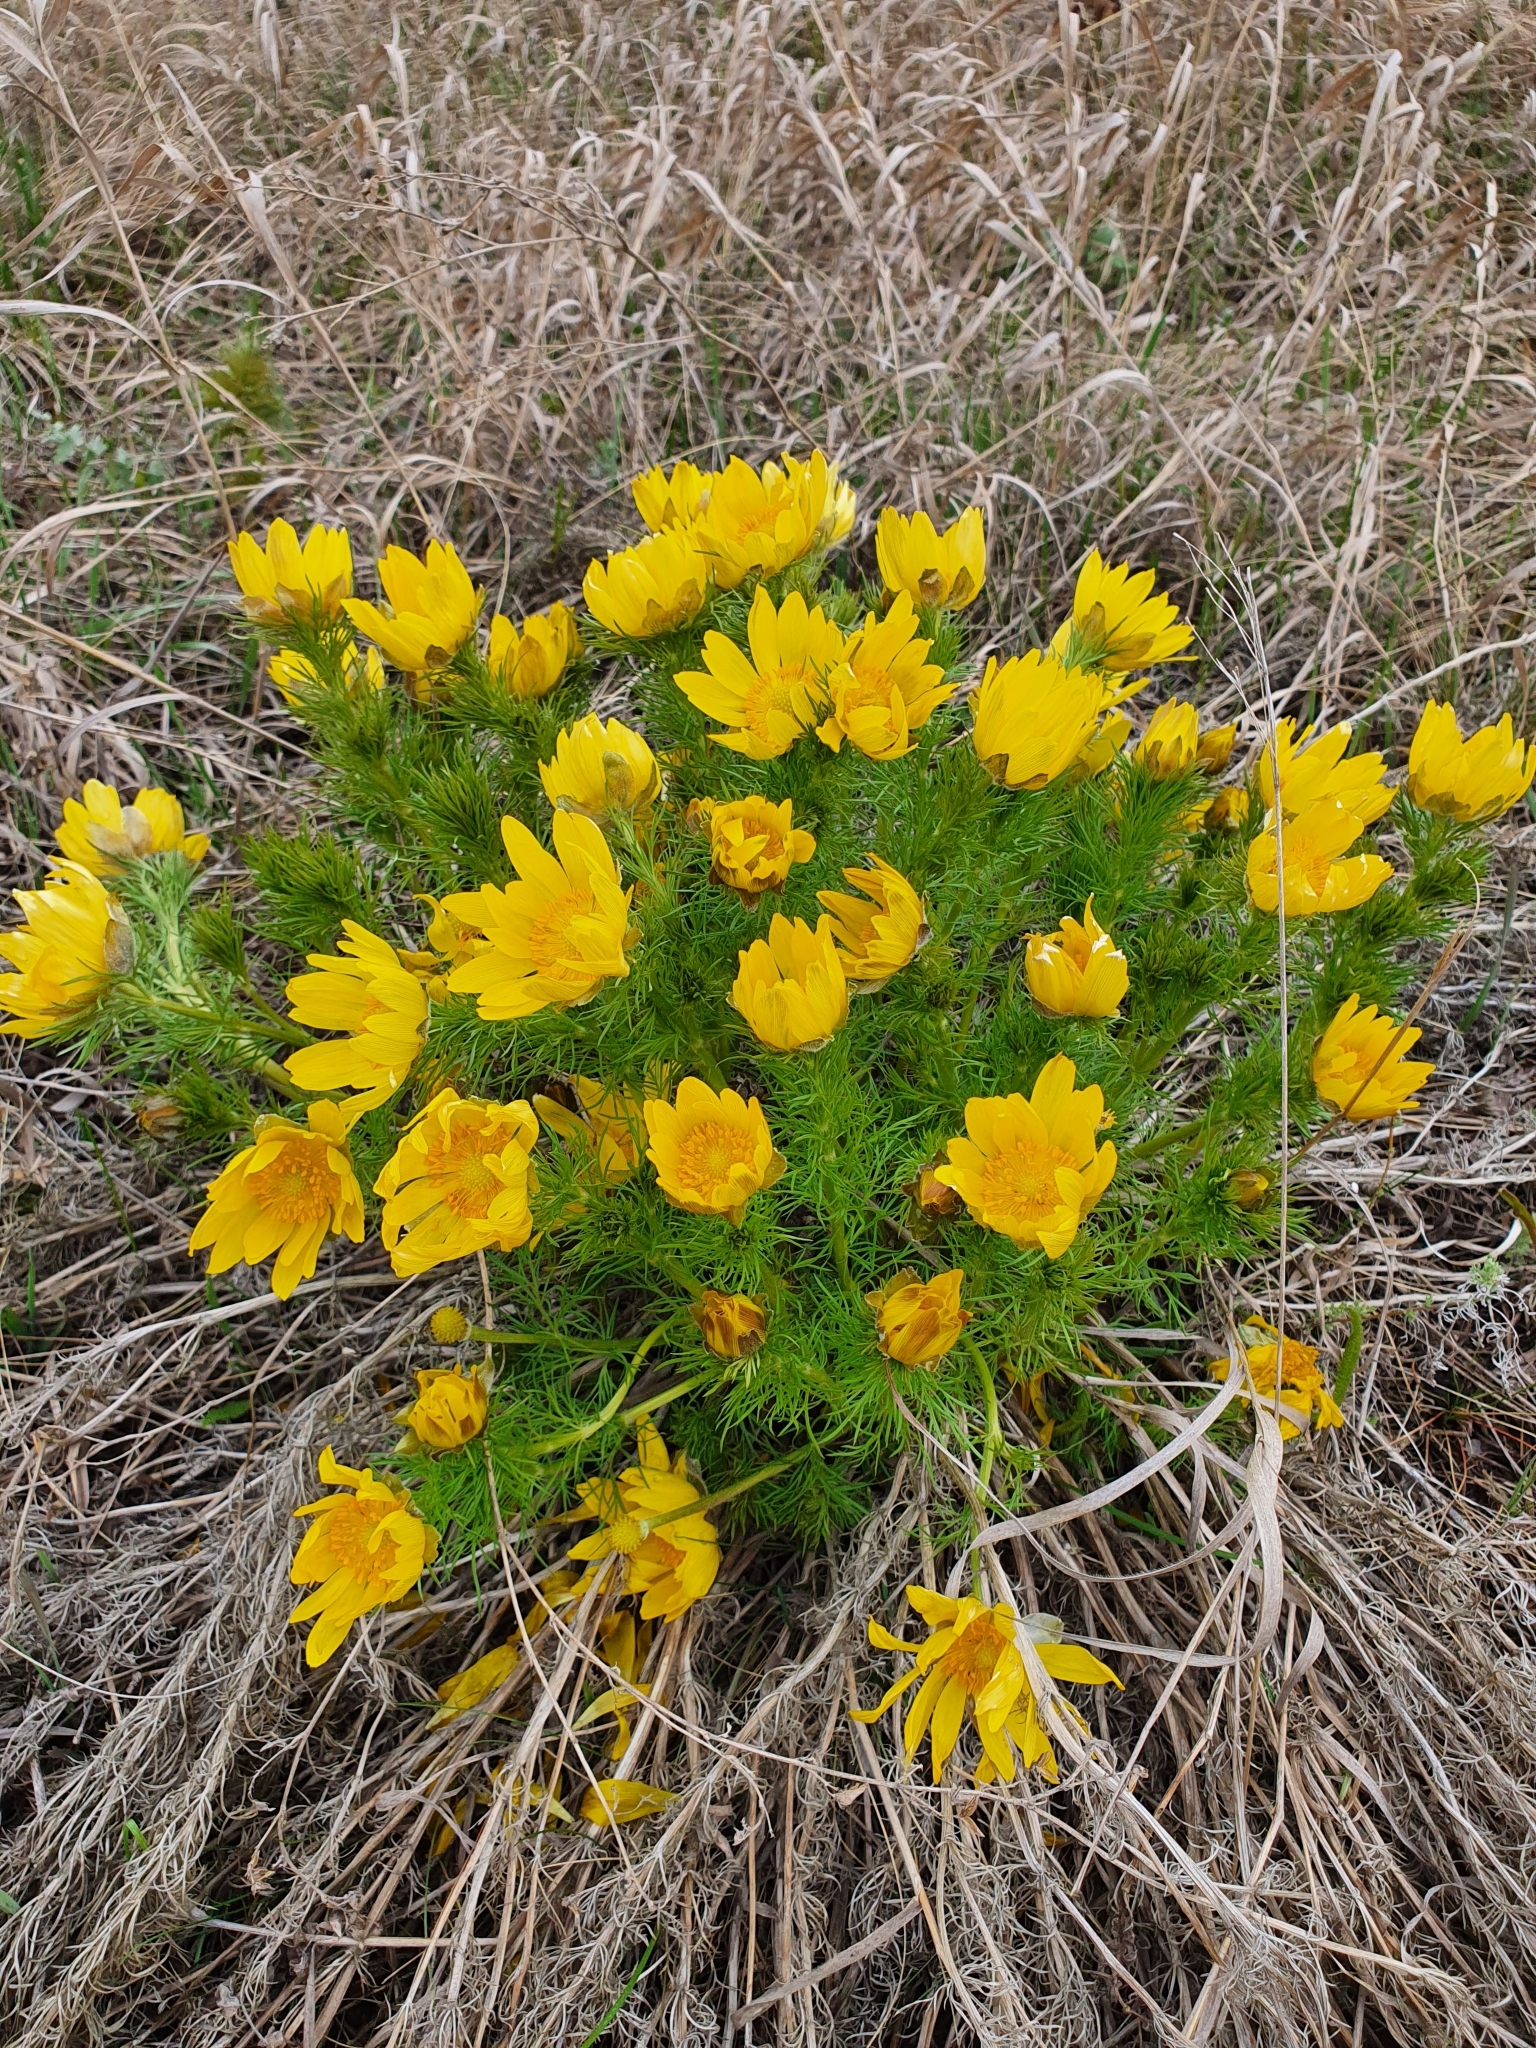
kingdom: Plantae
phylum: Tracheophyta
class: Magnoliopsida
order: Ranunculales
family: Ranunculaceae
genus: Adonis
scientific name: Adonis vernalis
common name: Yellow pheasants-eye
